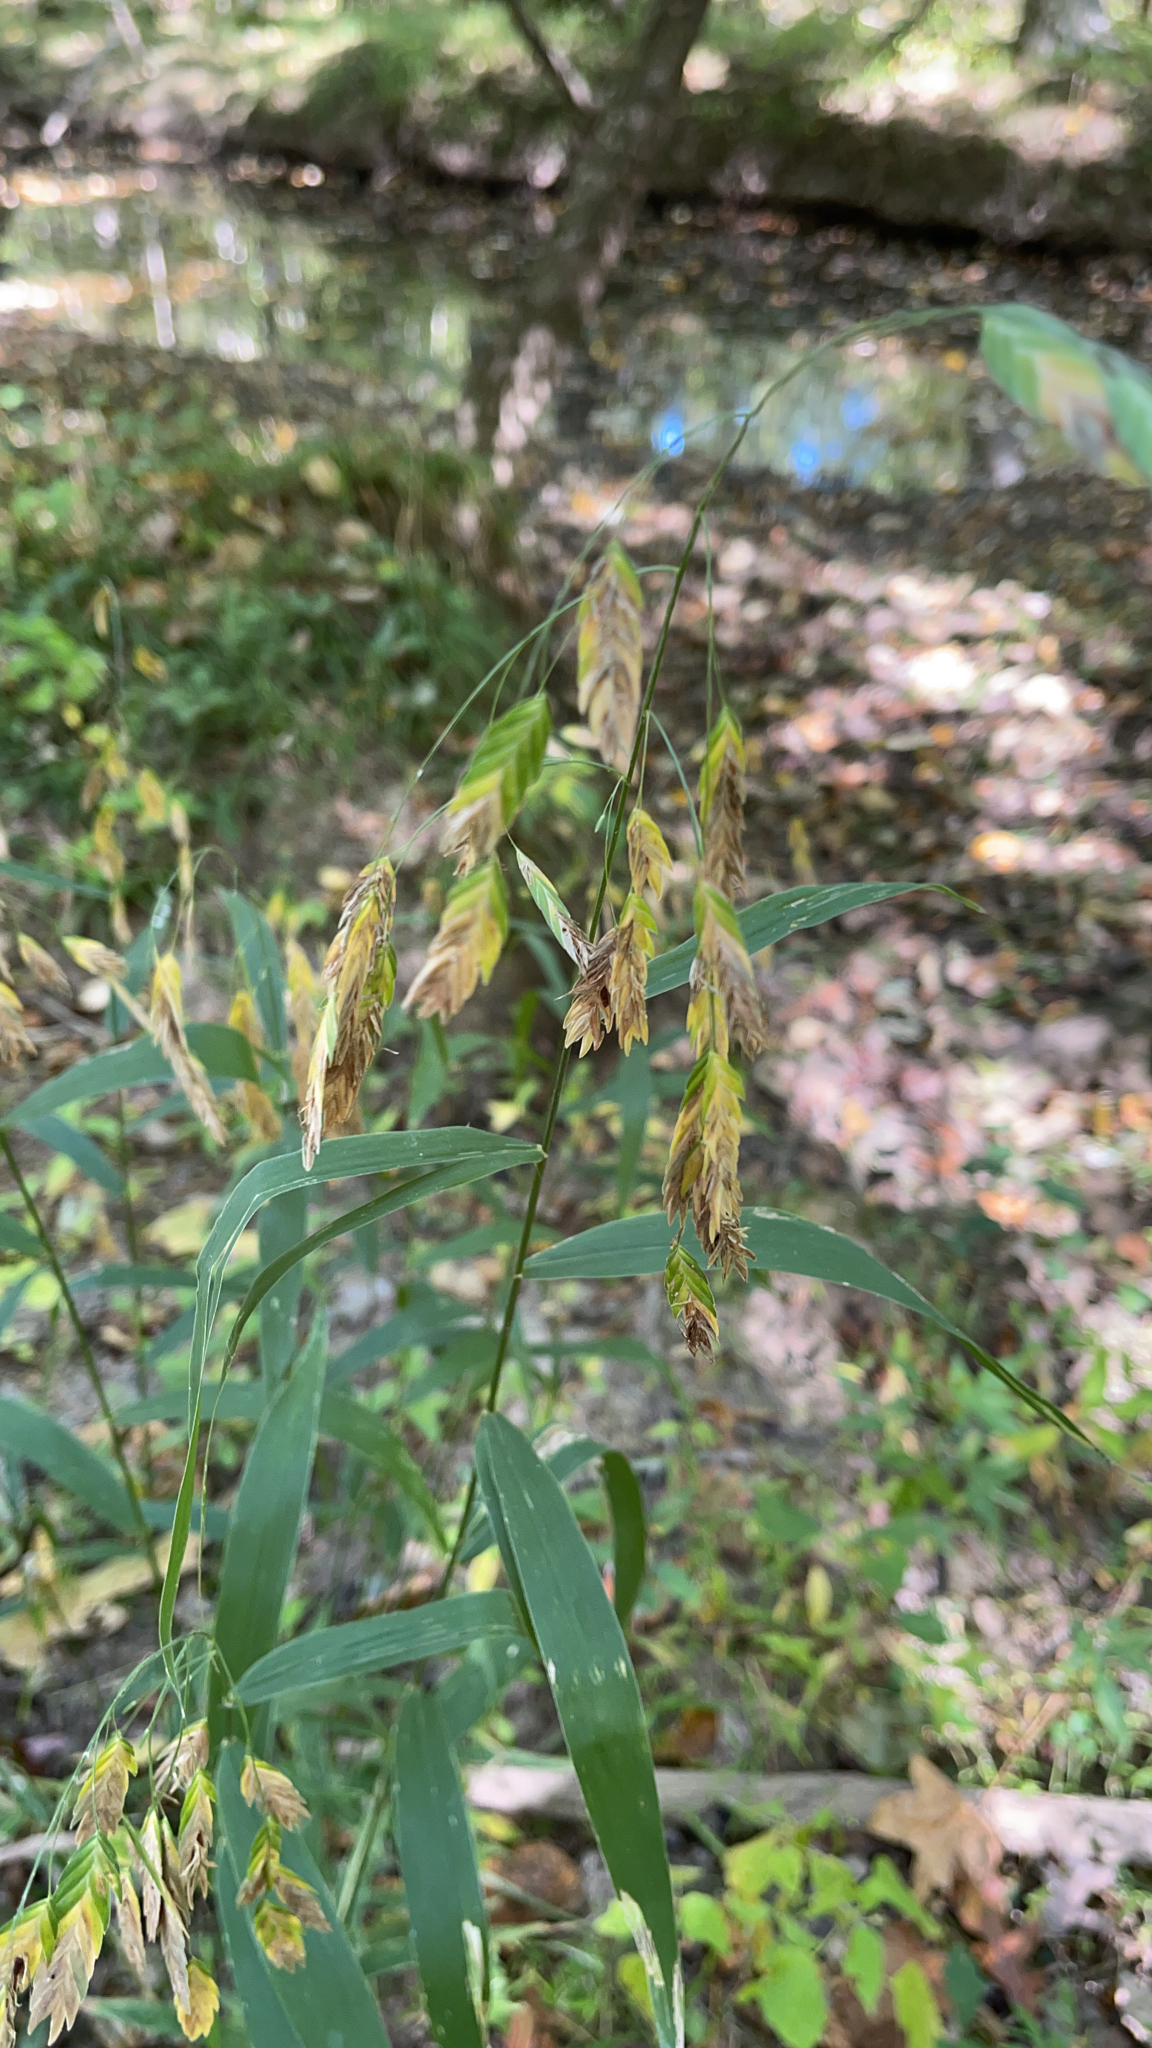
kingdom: Plantae
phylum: Tracheophyta
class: Liliopsida
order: Poales
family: Poaceae
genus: Chasmanthium
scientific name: Chasmanthium latifolium
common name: Broad-leaved chasmanthium
